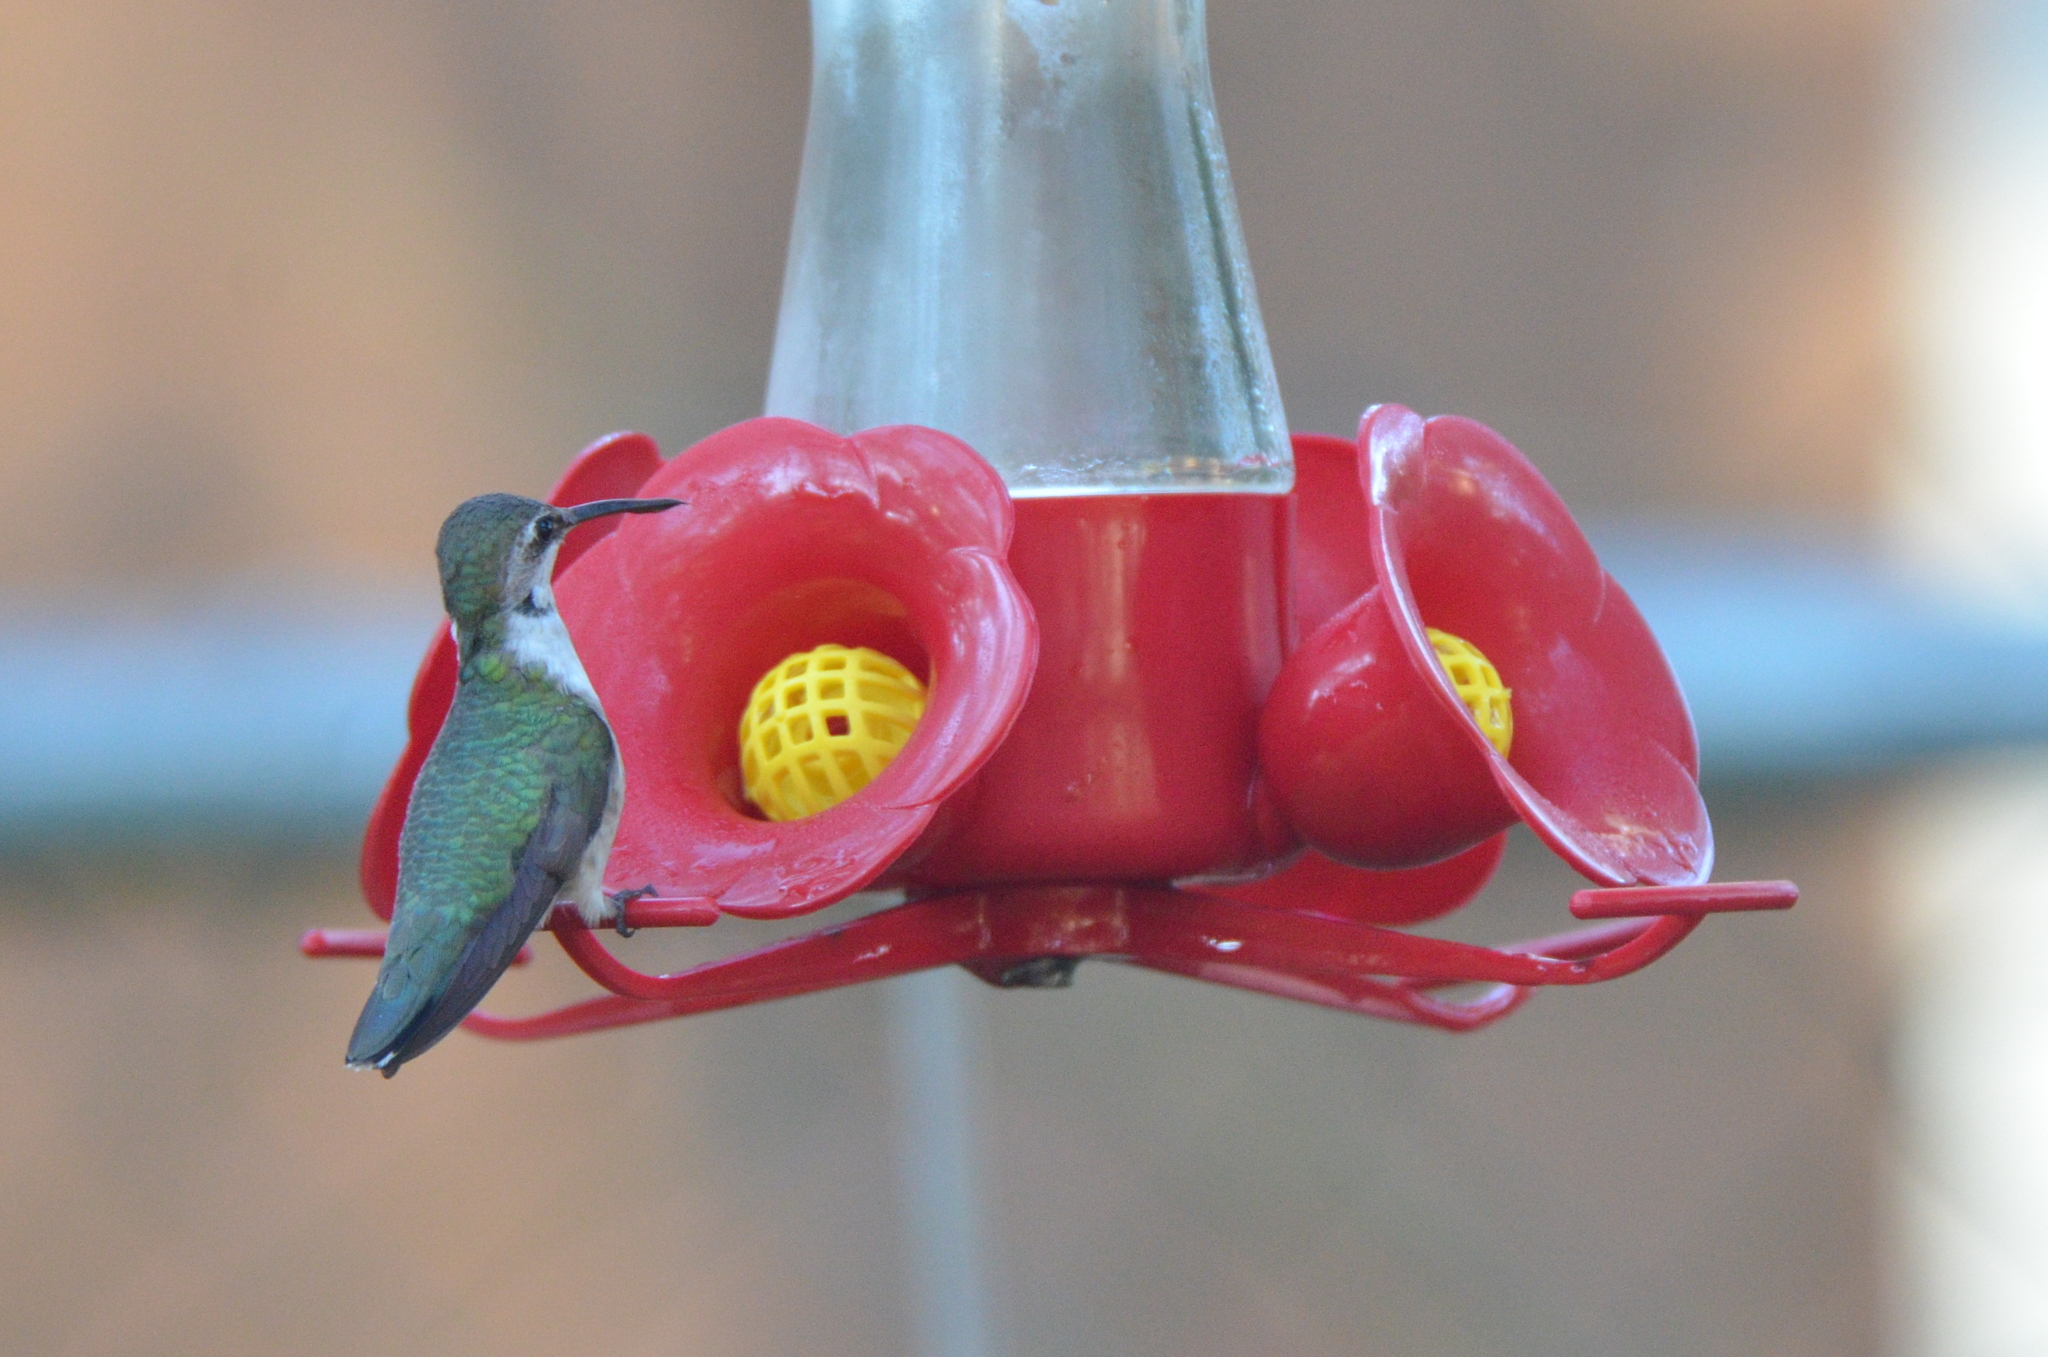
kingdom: Animalia
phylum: Chordata
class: Aves
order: Apodiformes
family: Trochilidae
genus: Archilochus
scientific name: Archilochus colubris
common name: Ruby-throated hummingbird
